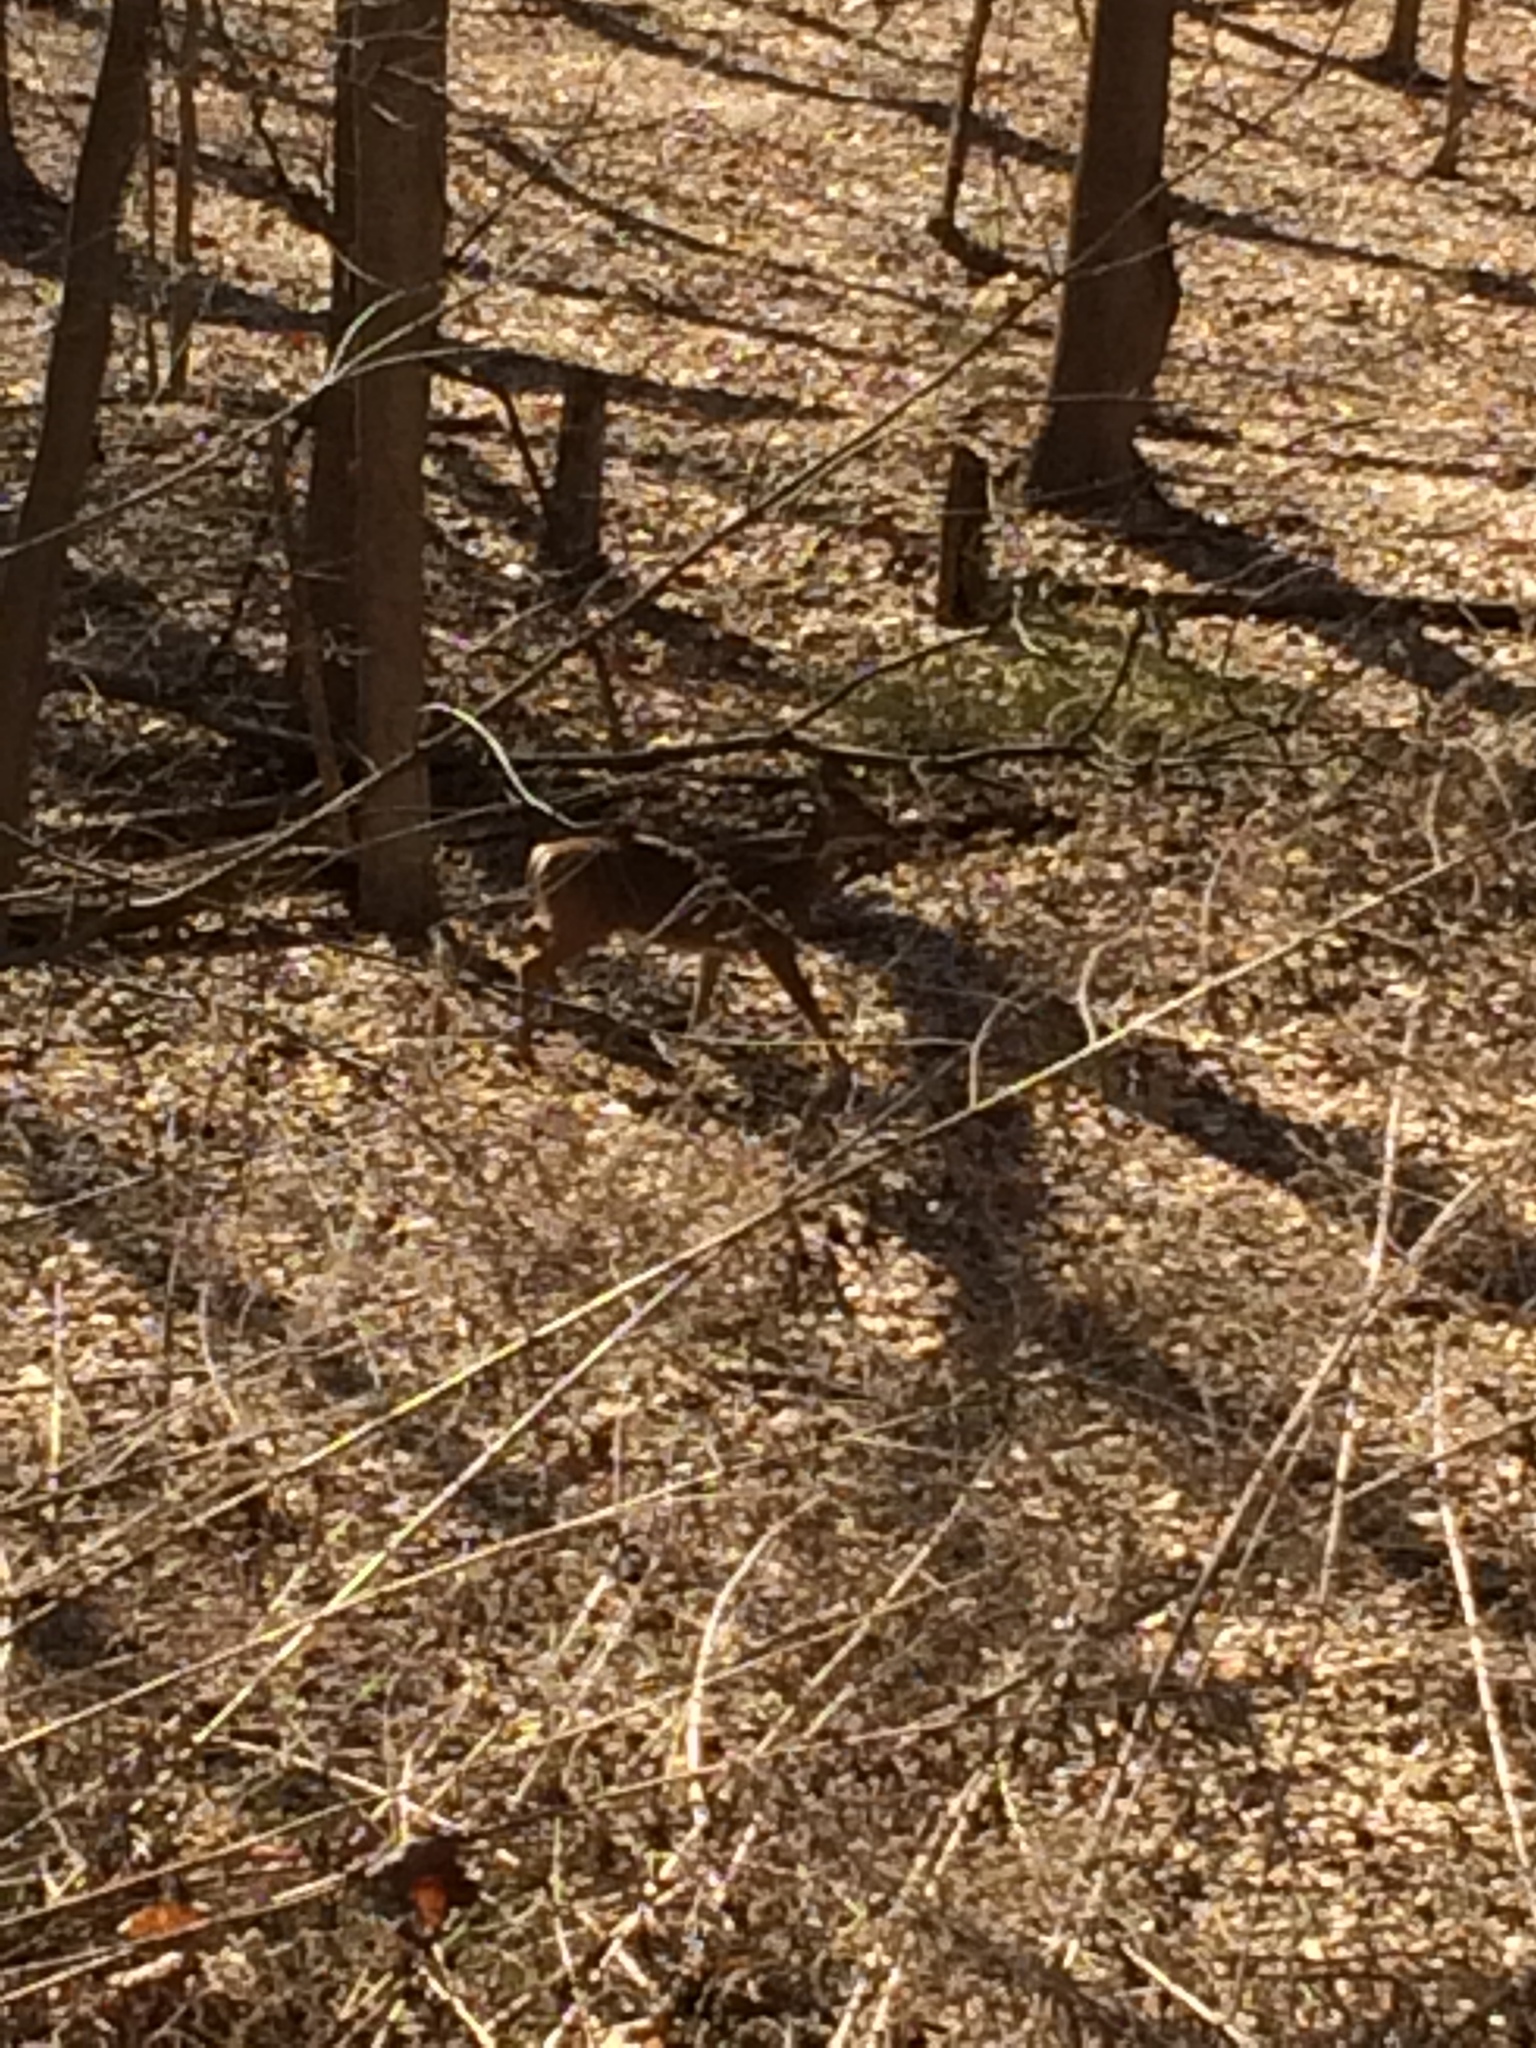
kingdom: Animalia
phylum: Chordata
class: Mammalia
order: Artiodactyla
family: Cervidae
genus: Odocoileus
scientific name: Odocoileus virginianus
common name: White-tailed deer
